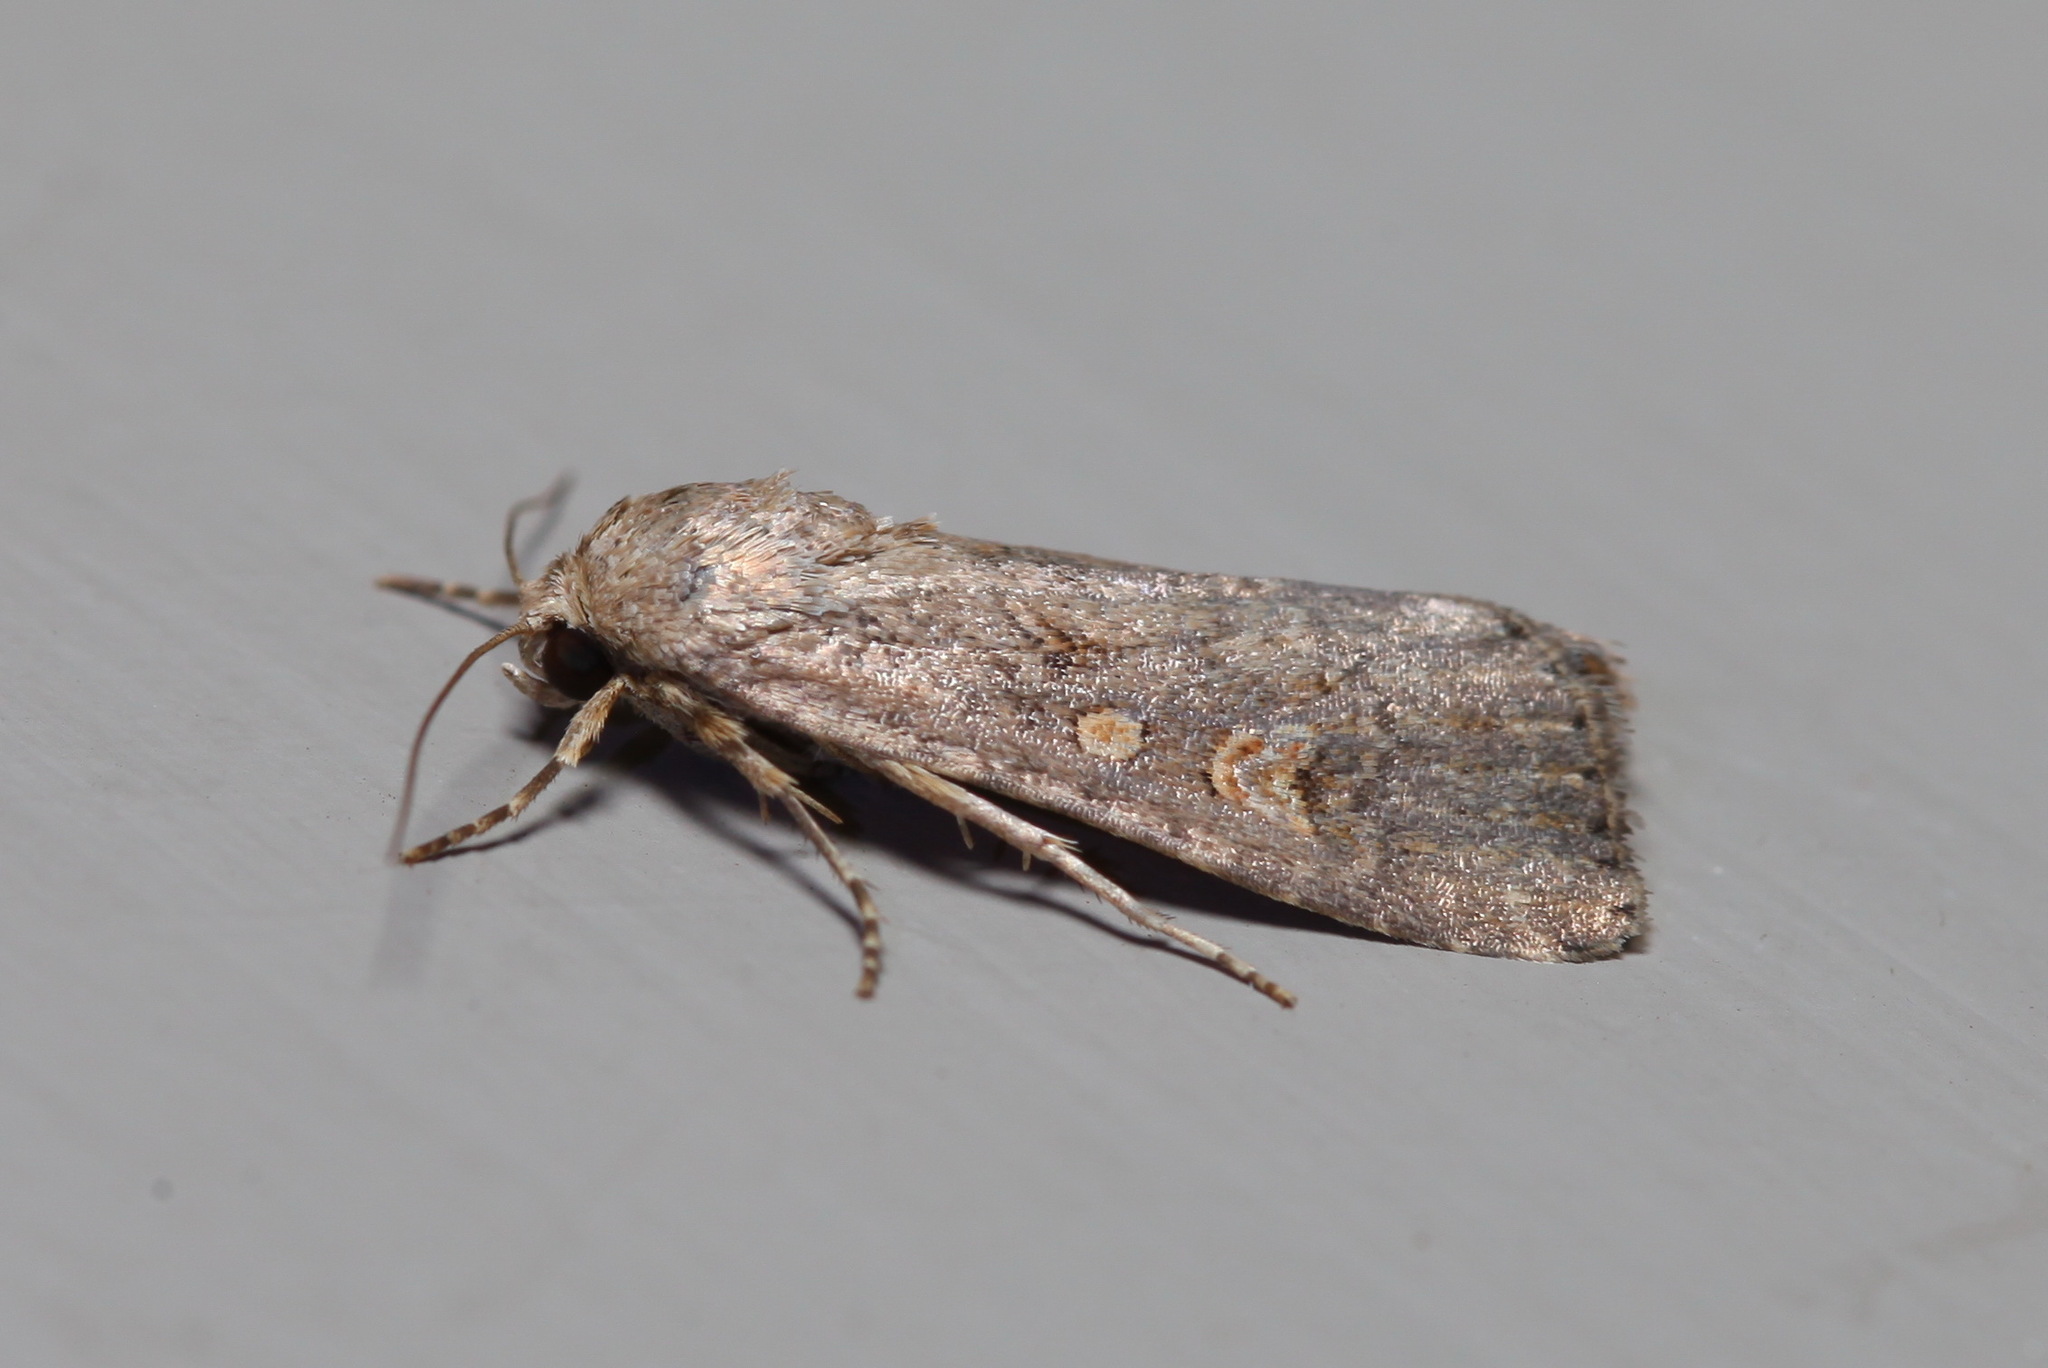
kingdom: Animalia
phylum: Arthropoda
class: Insecta
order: Lepidoptera
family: Noctuidae
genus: Spodoptera
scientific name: Spodoptera exigua
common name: Beet armyworm
